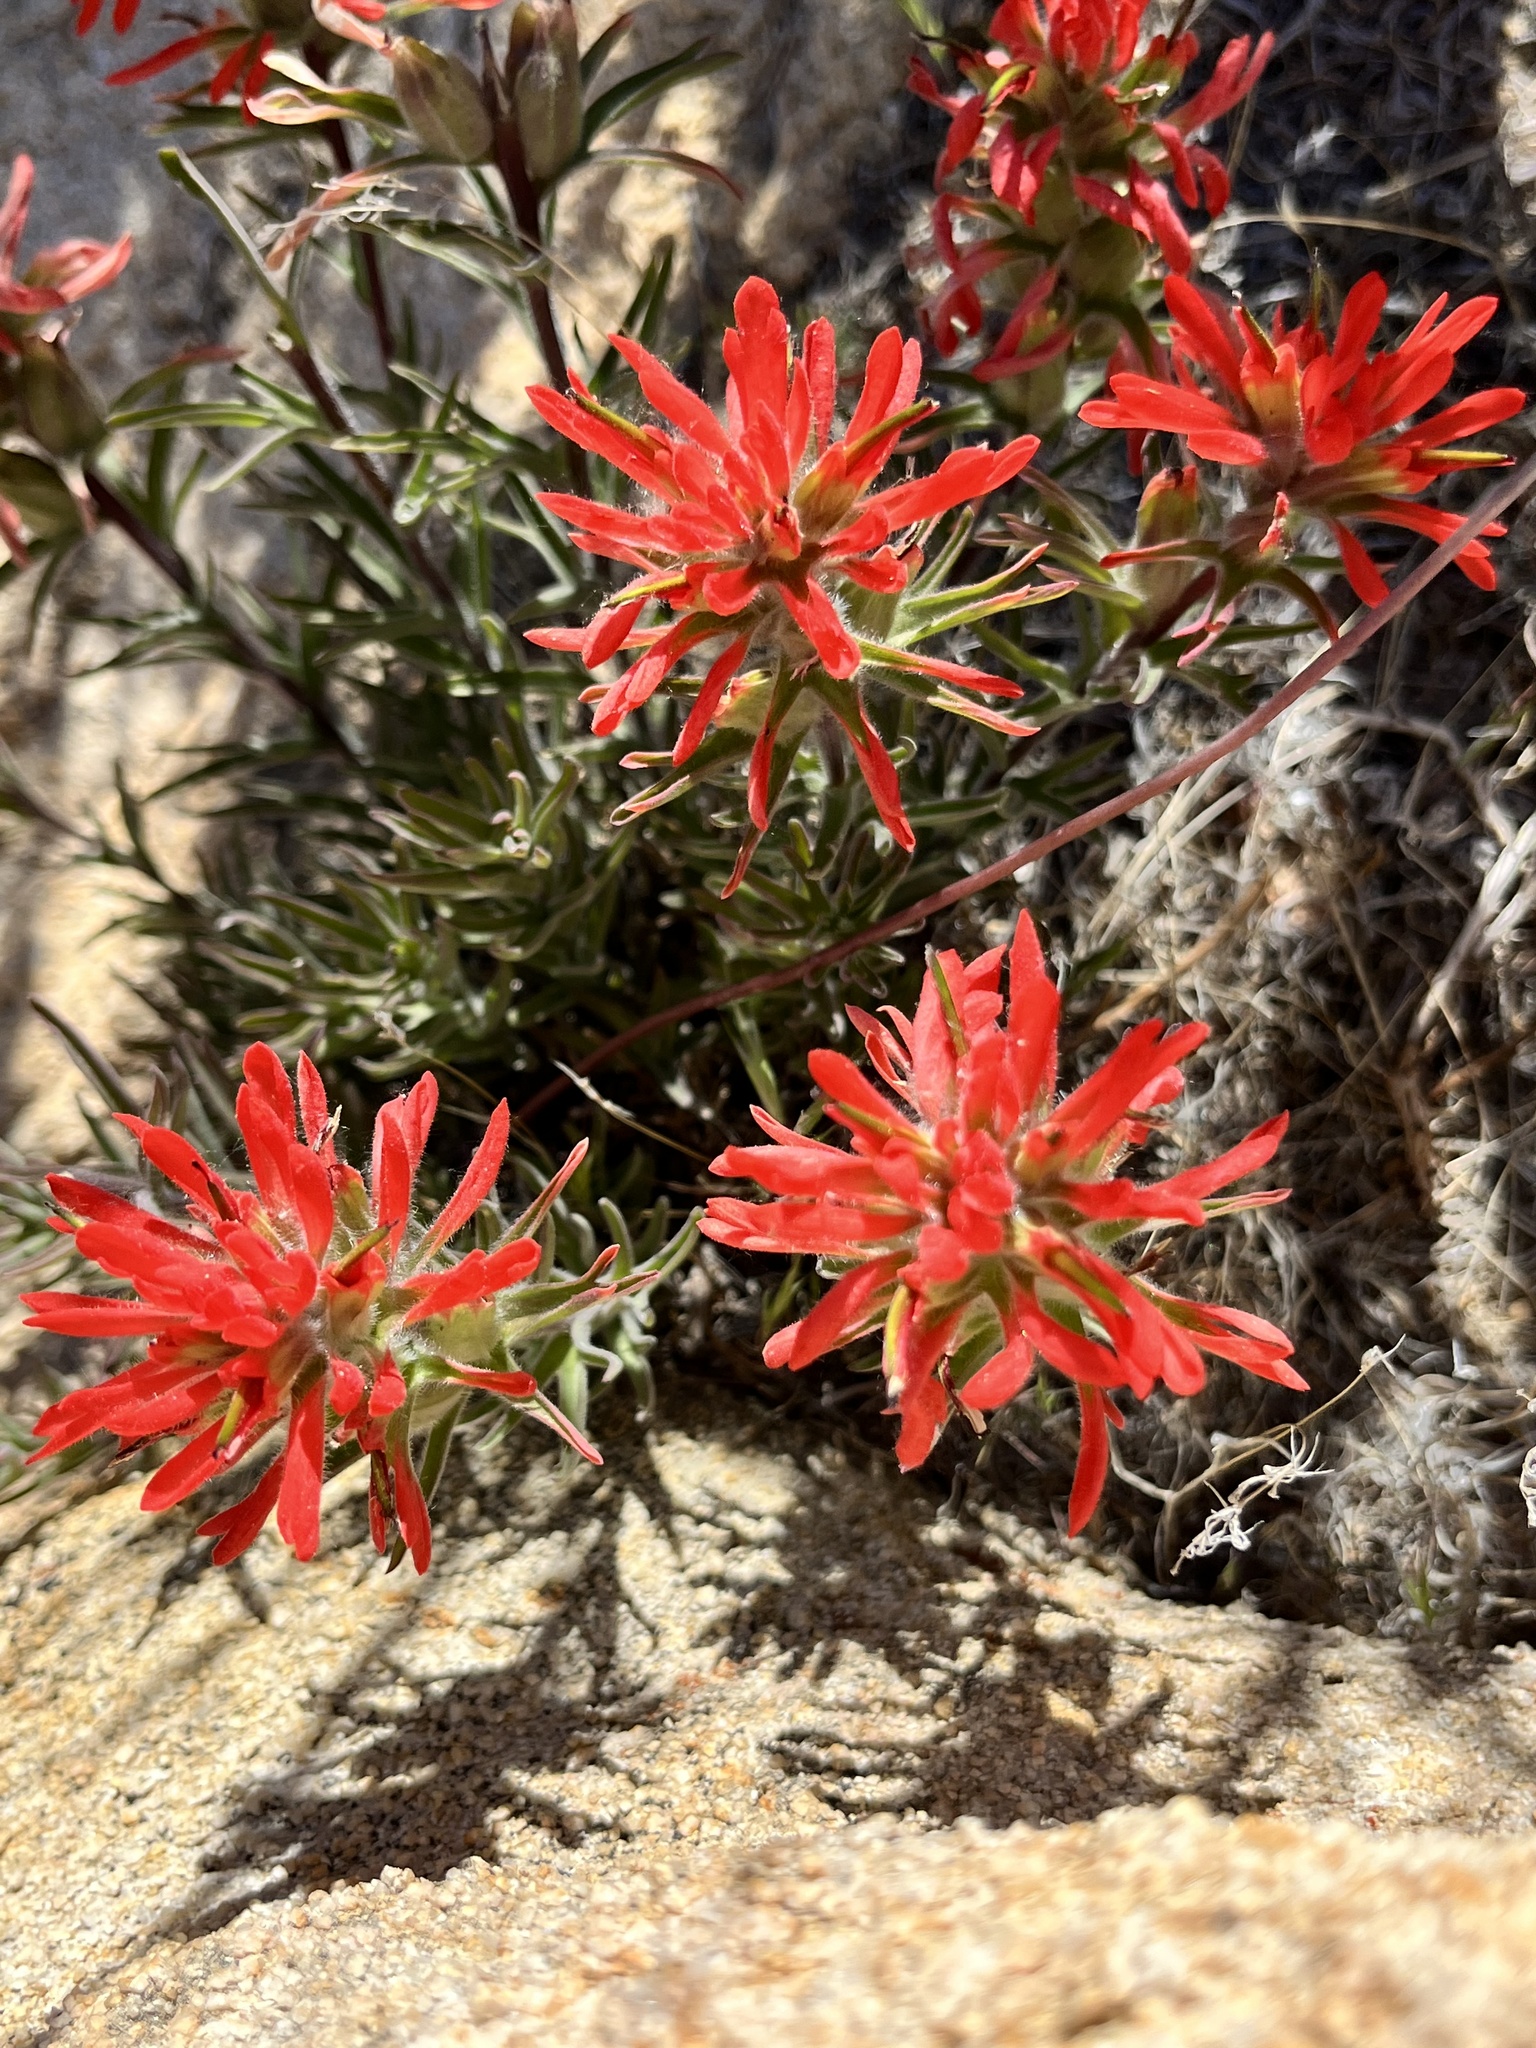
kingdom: Plantae
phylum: Tracheophyta
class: Magnoliopsida
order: Lamiales
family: Orobanchaceae
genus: Castilleja
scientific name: Castilleja chromosa
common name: Desert paintbrush
